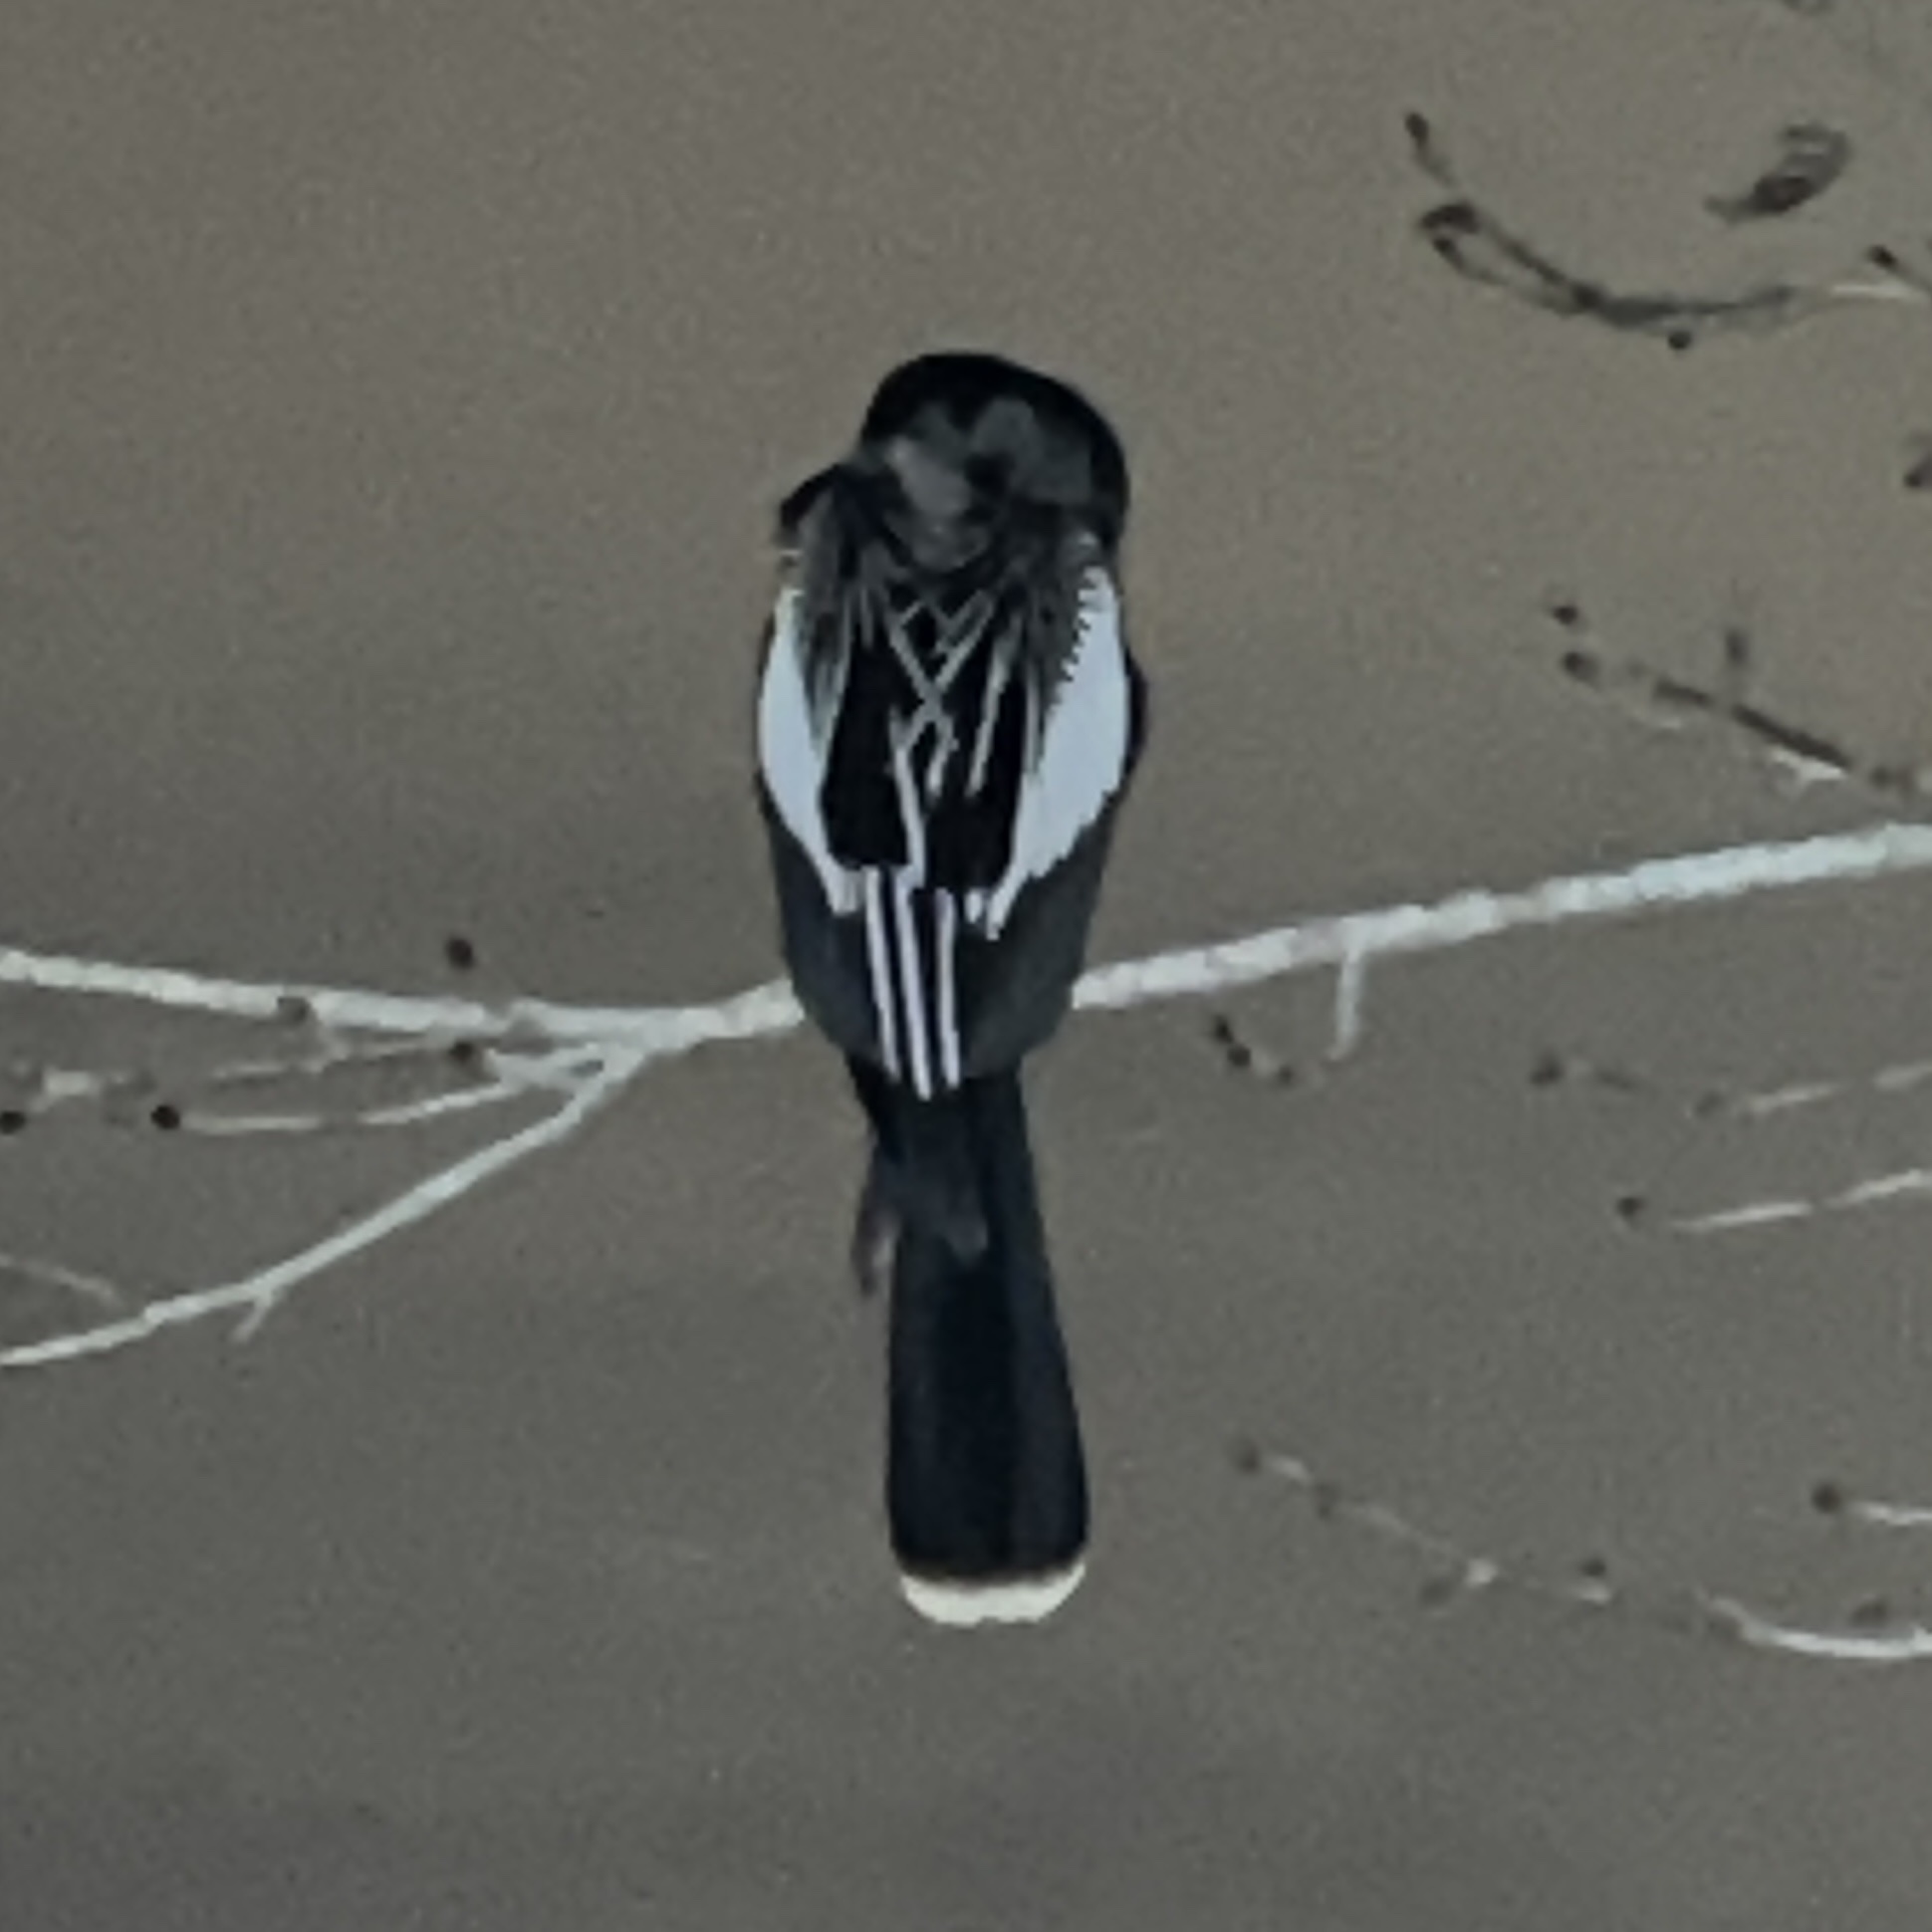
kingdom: Animalia
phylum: Chordata
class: Aves
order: Suliformes
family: Anhingidae
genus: Anhinga
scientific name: Anhinga anhinga
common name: Anhinga
